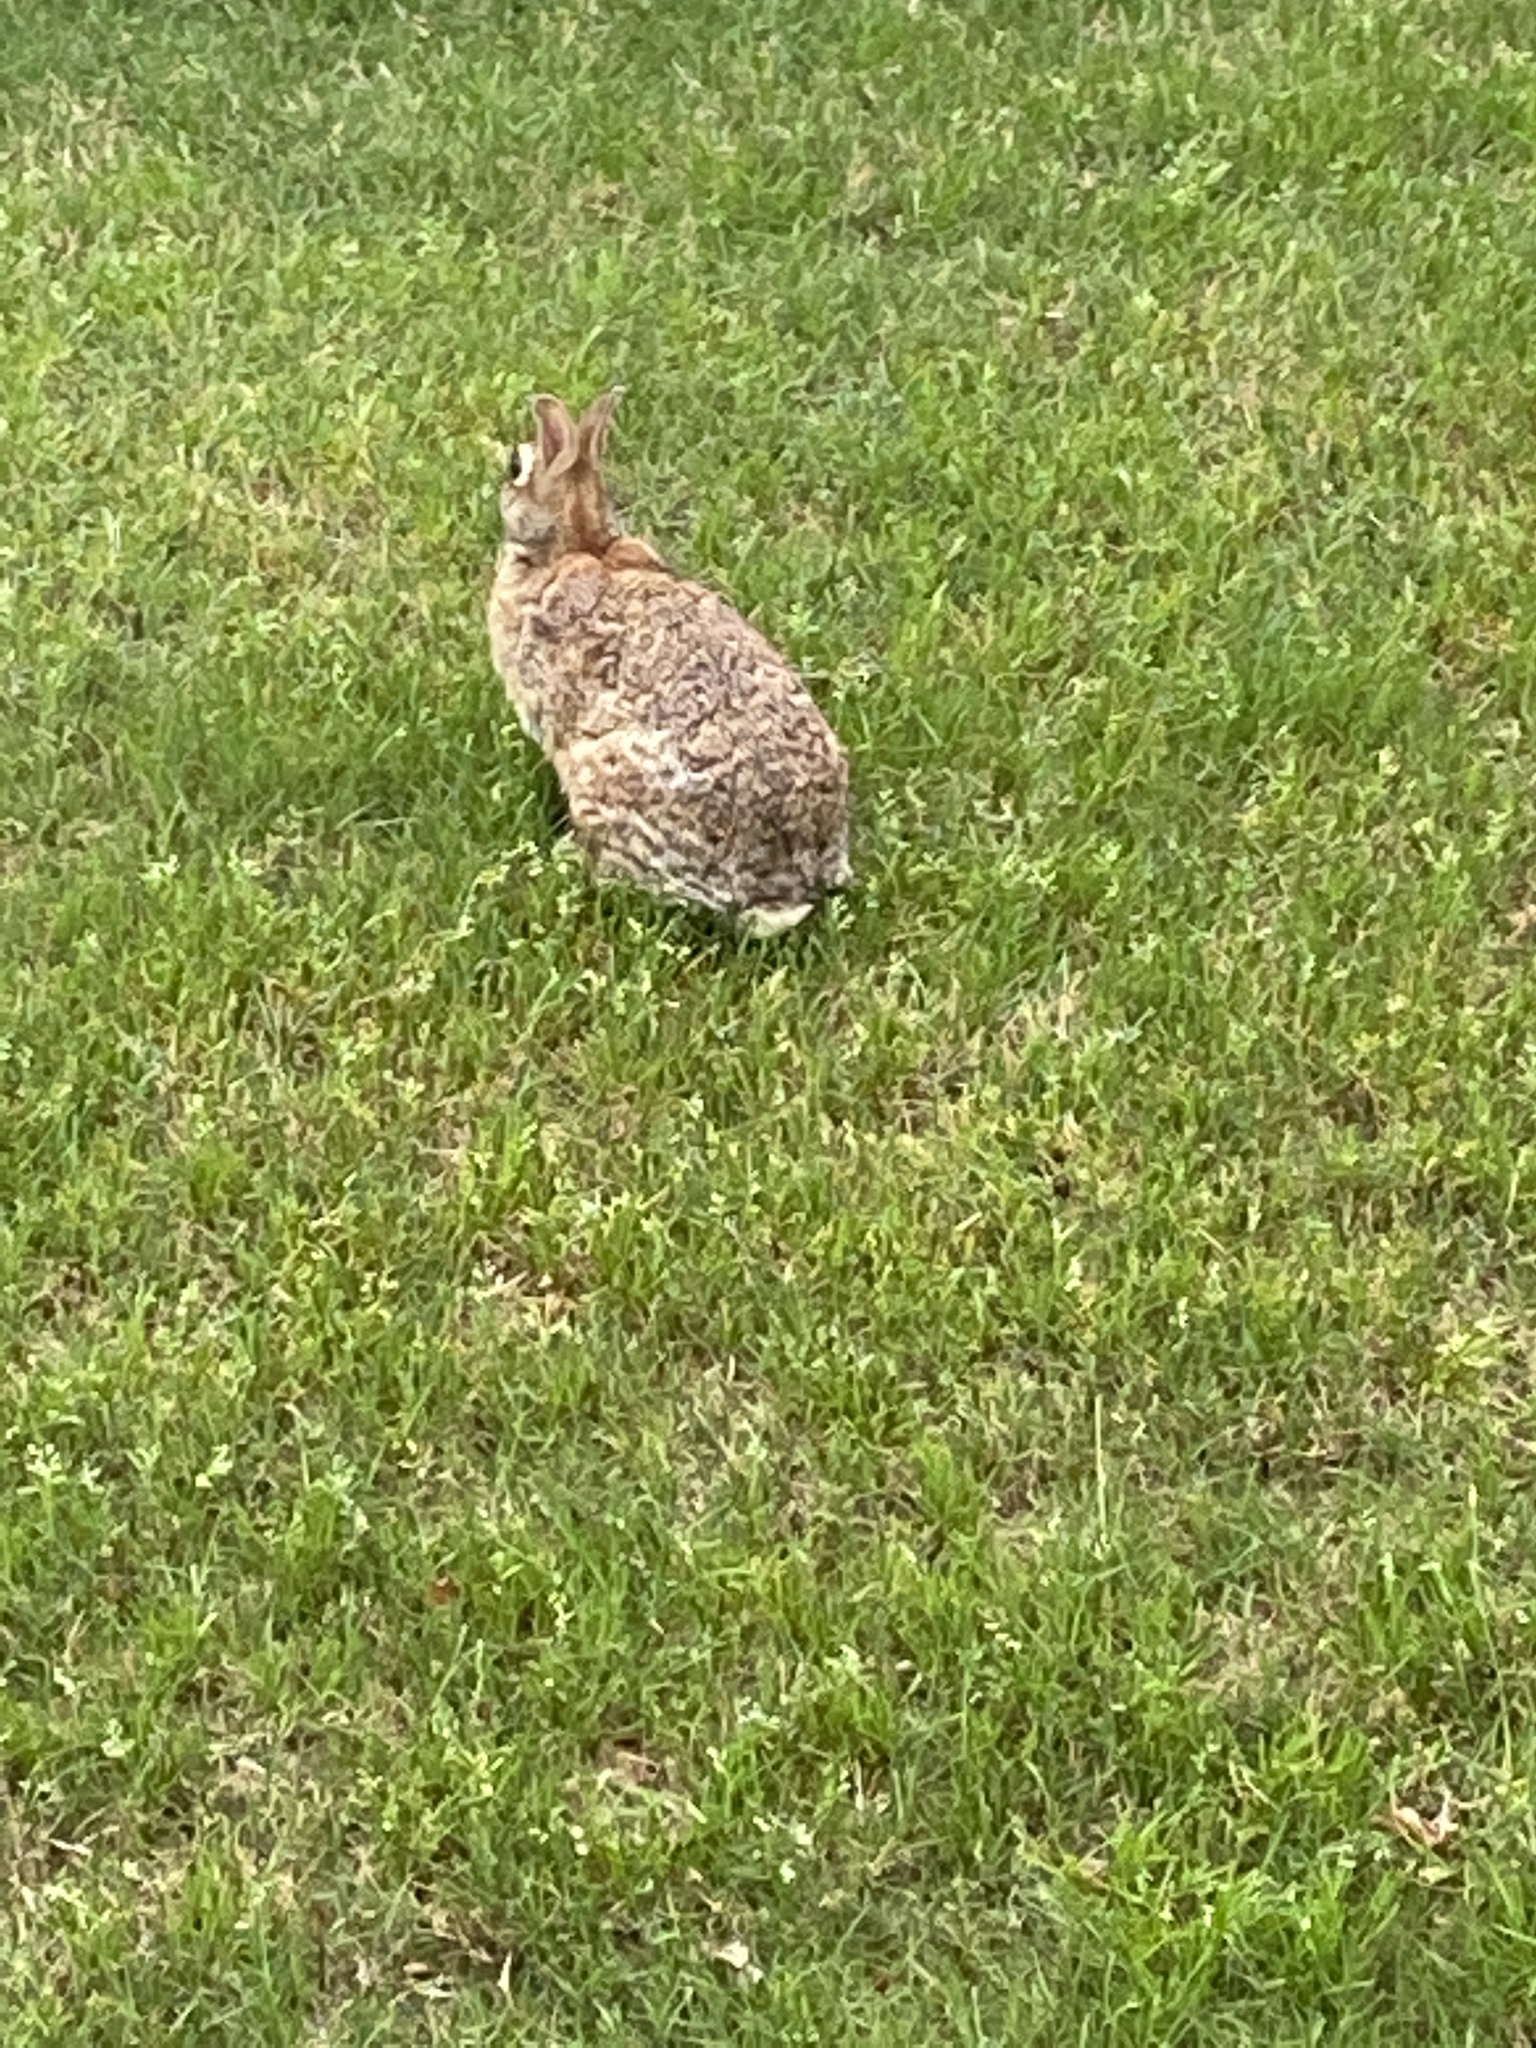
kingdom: Animalia
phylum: Chordata
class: Mammalia
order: Lagomorpha
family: Leporidae
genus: Sylvilagus
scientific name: Sylvilagus floridanus
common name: Eastern cottontail
